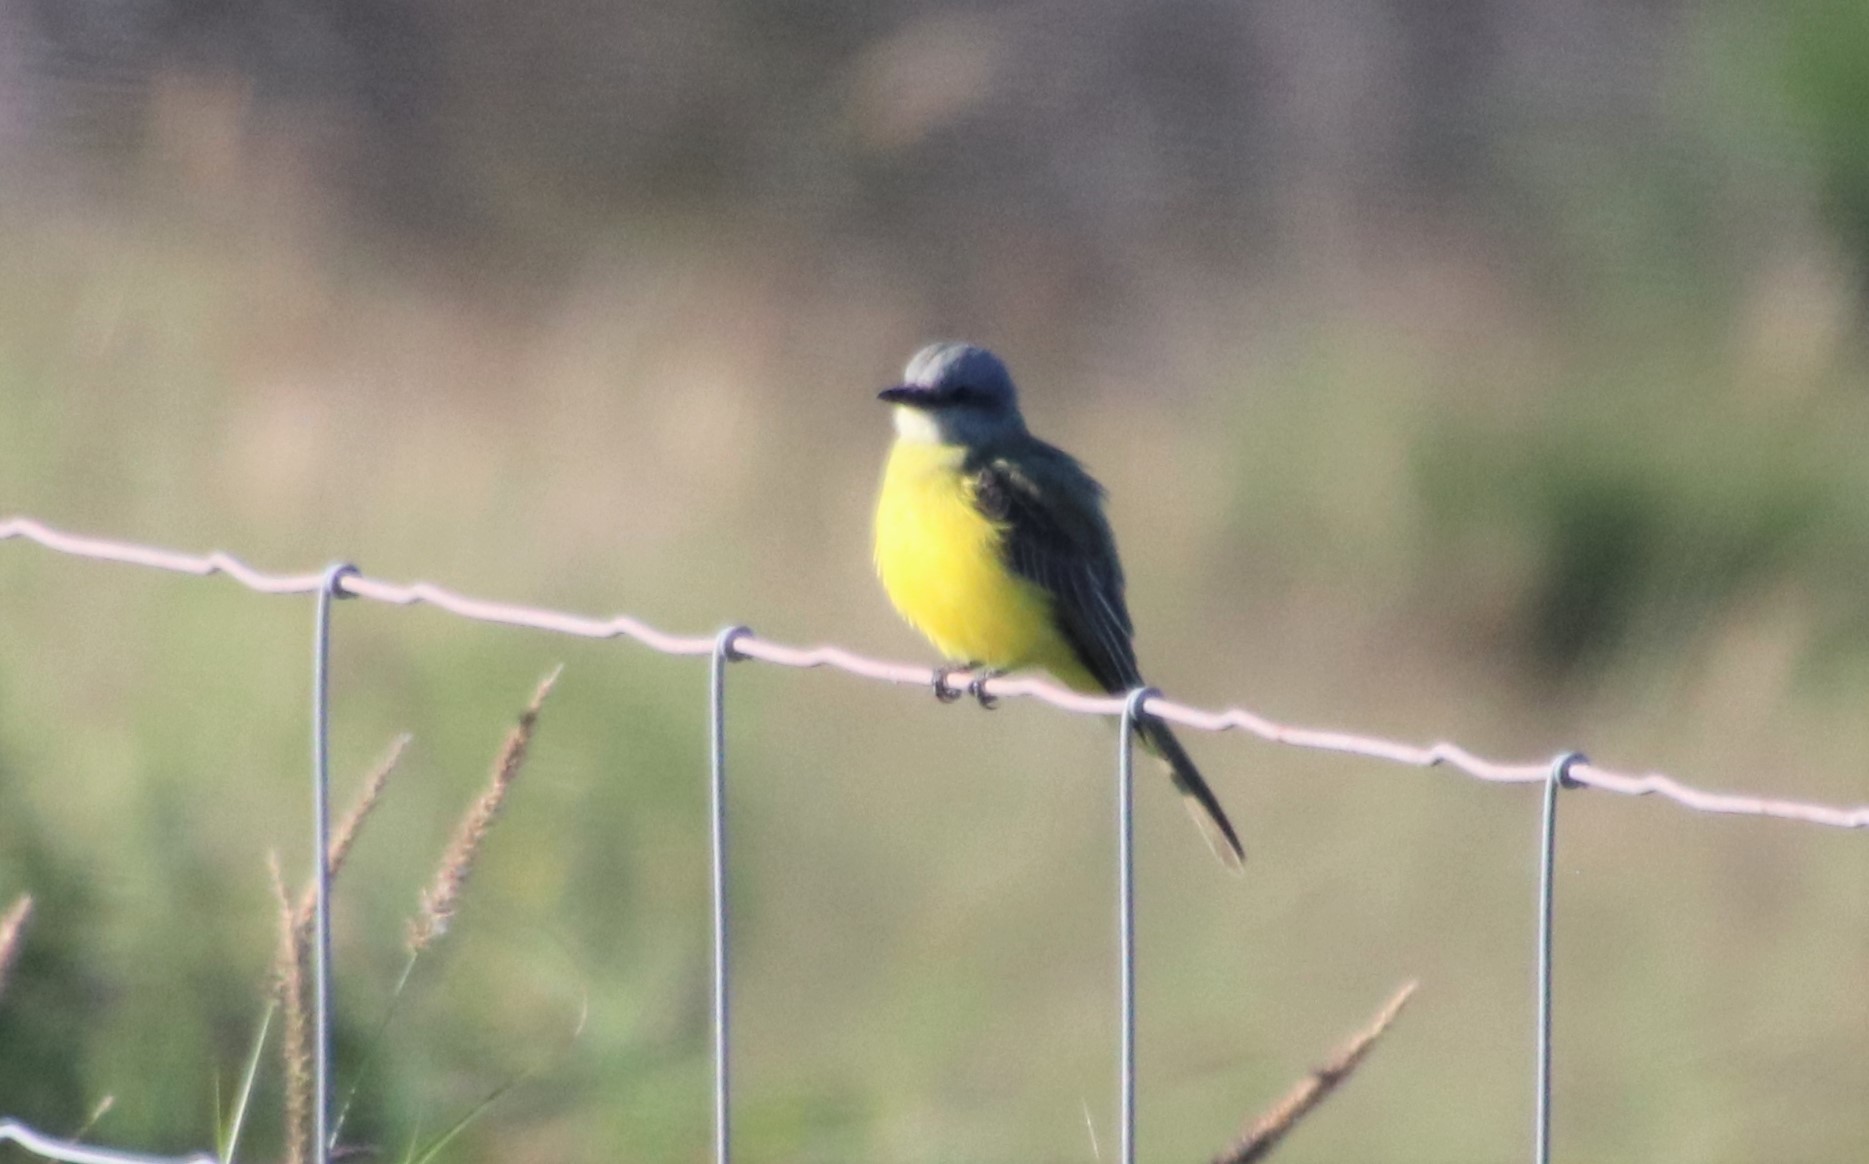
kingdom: Animalia
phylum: Chordata
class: Aves
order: Passeriformes
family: Tyrannidae
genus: Tyrannus
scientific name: Tyrannus couchii
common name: Couch's kingbird
